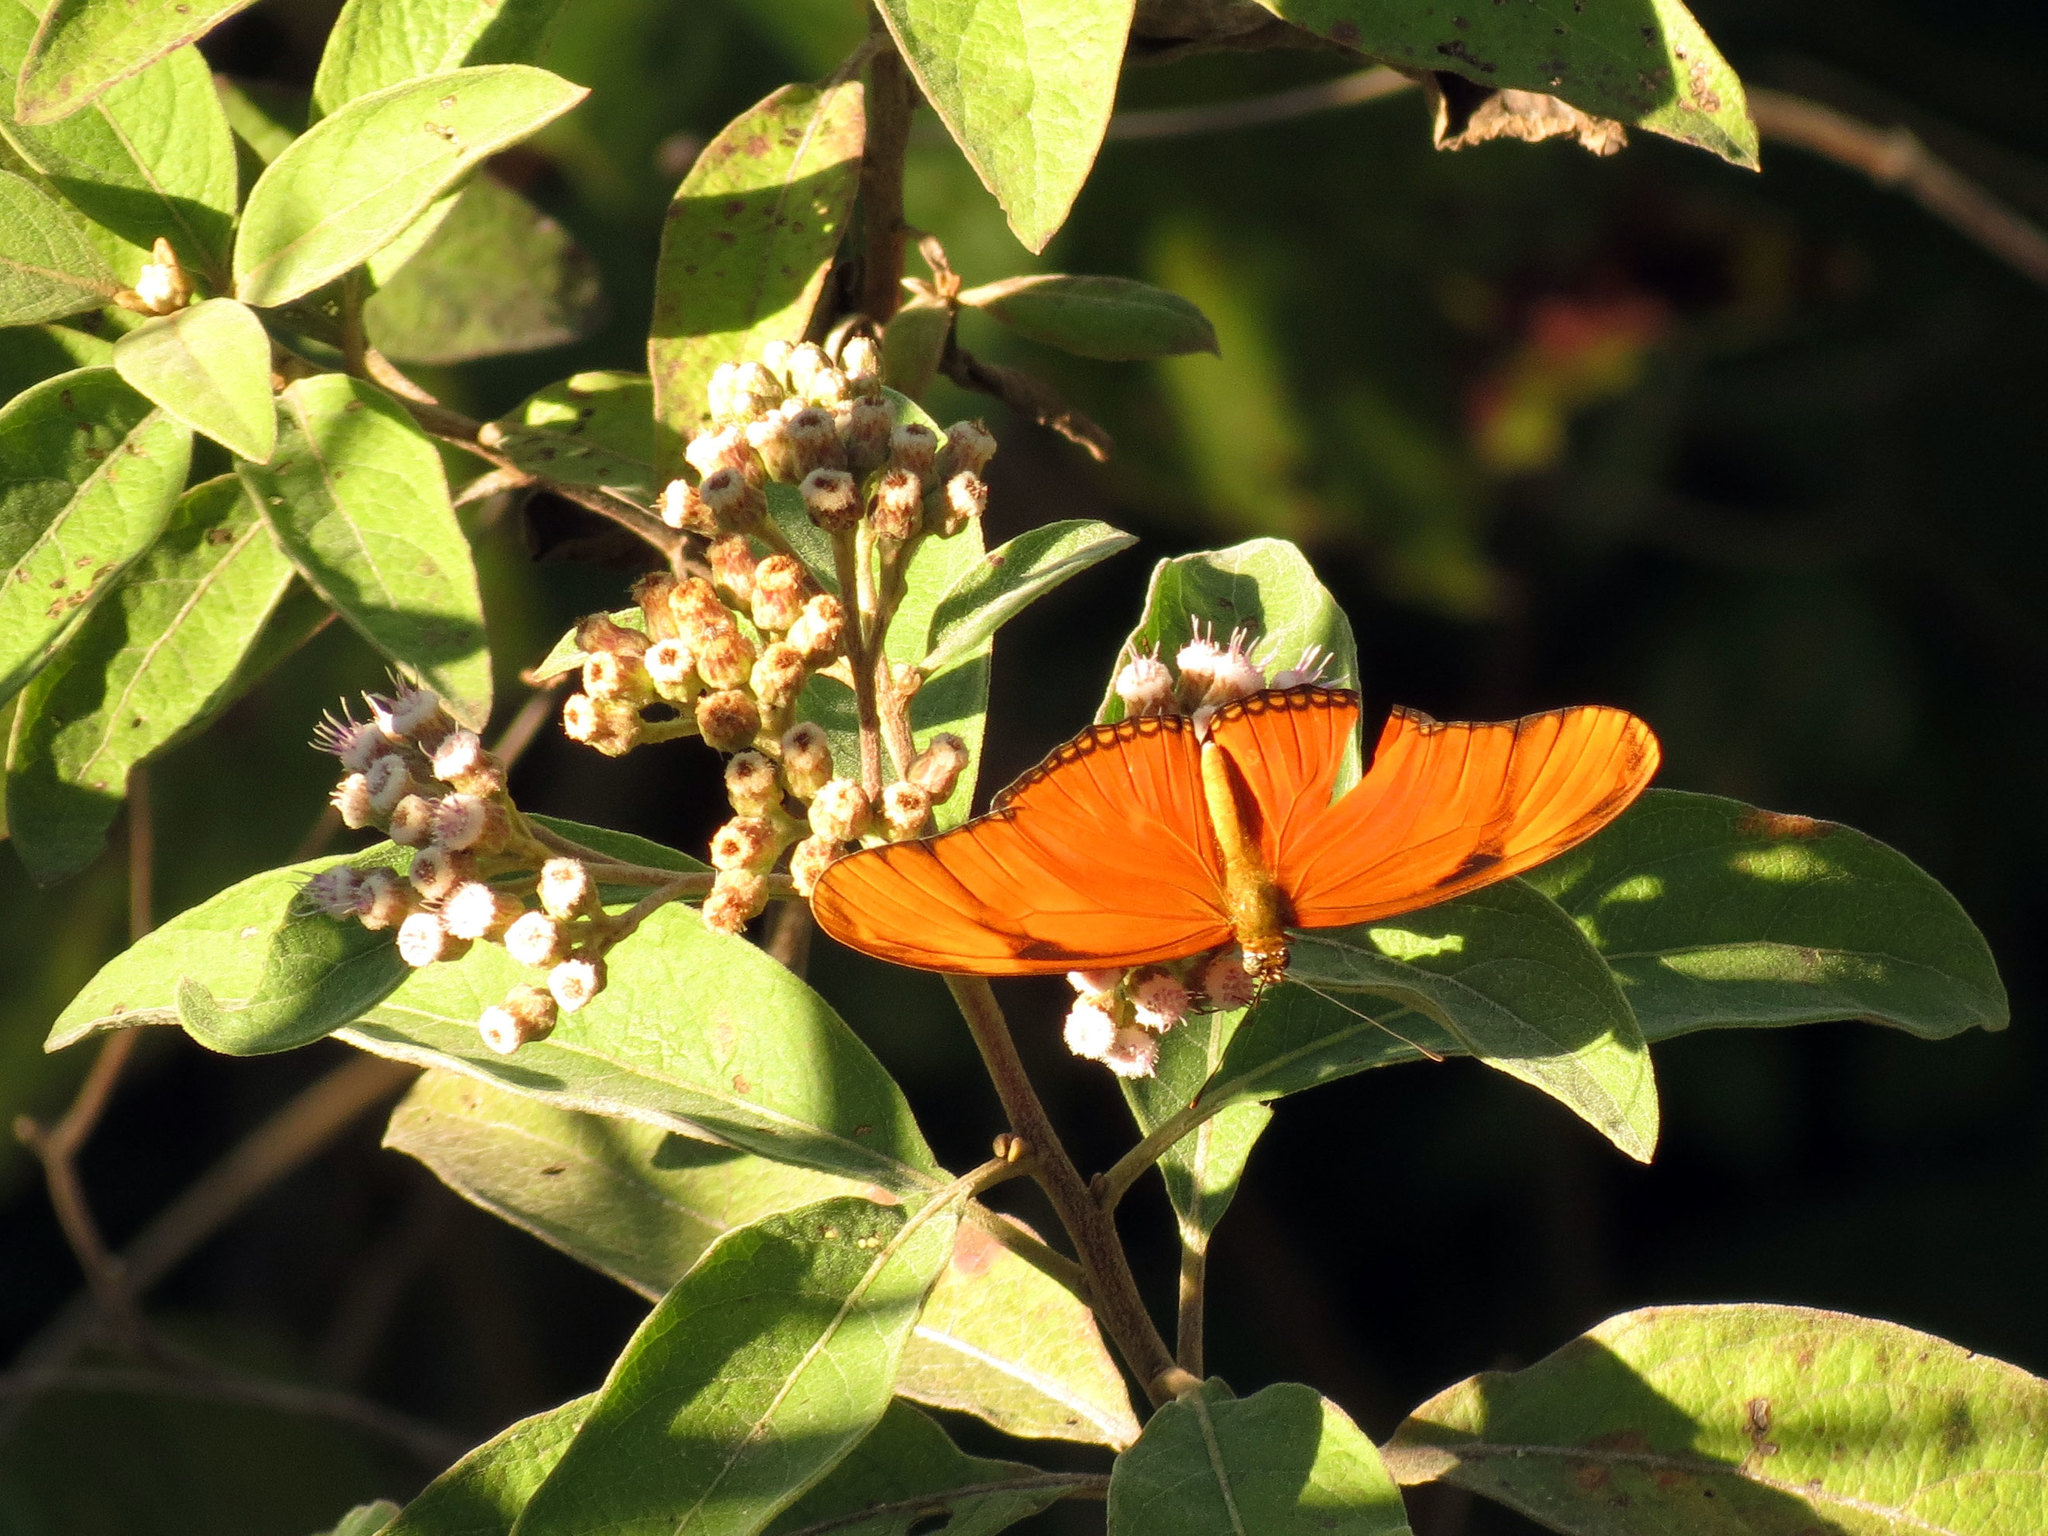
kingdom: Animalia
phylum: Arthropoda
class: Insecta
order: Lepidoptera
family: Nymphalidae
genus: Dryas
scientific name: Dryas iulia
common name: Flambeau
